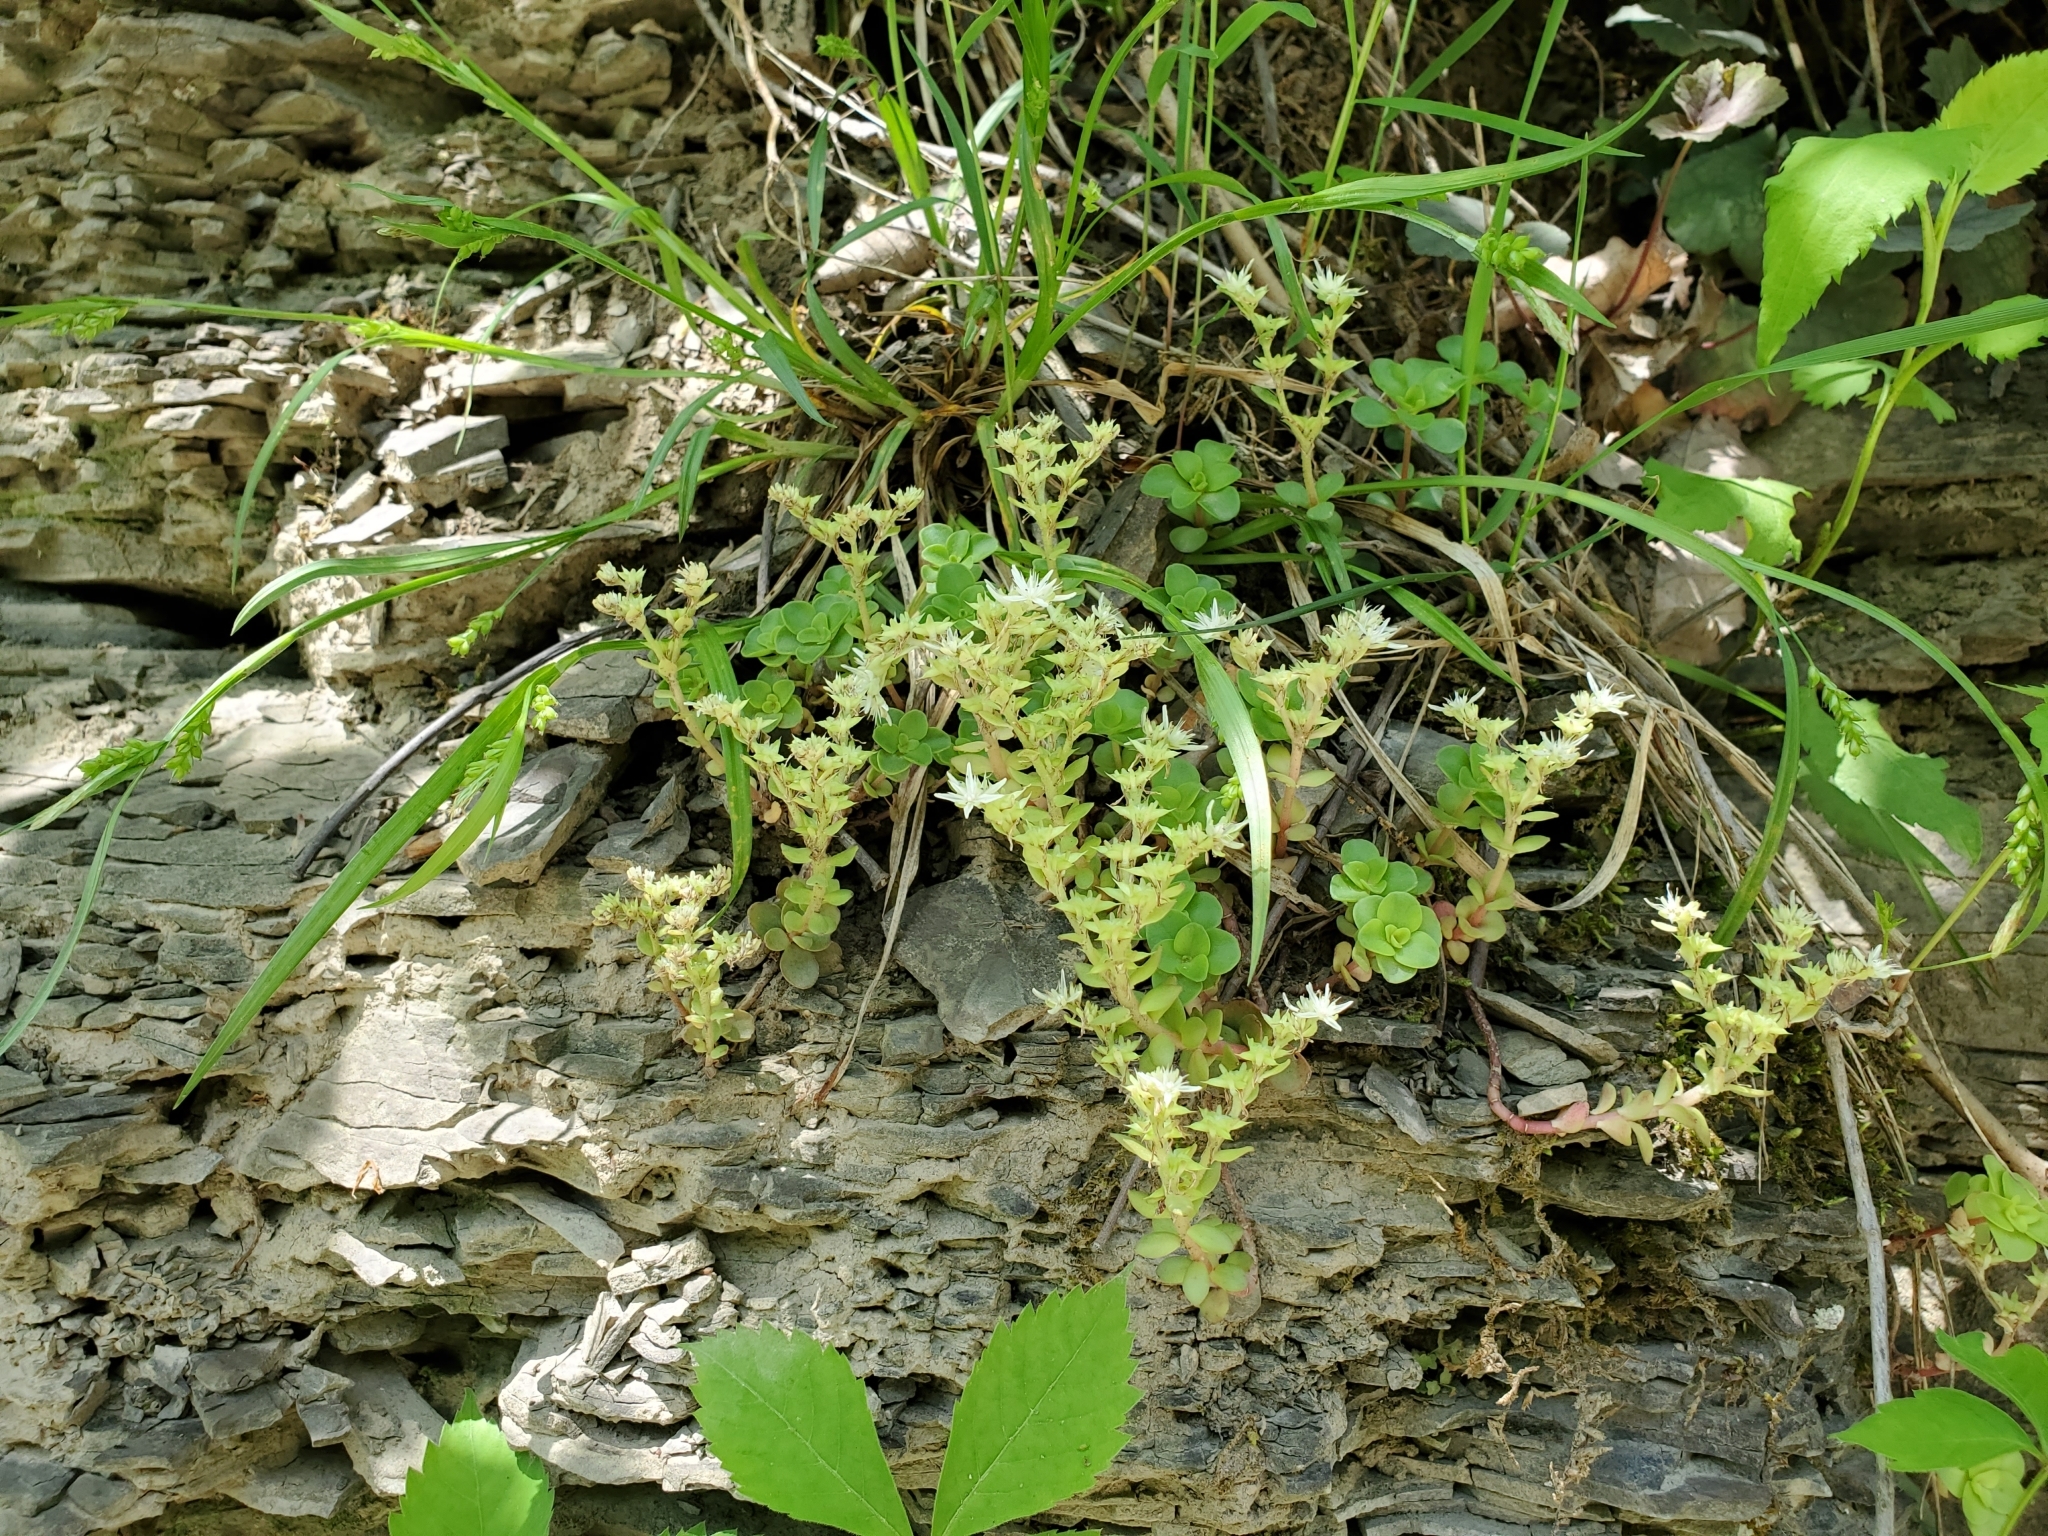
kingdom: Plantae
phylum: Tracheophyta
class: Magnoliopsida
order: Saxifragales
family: Crassulaceae
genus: Sedum
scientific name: Sedum ternatum
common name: Wild stonecrop
